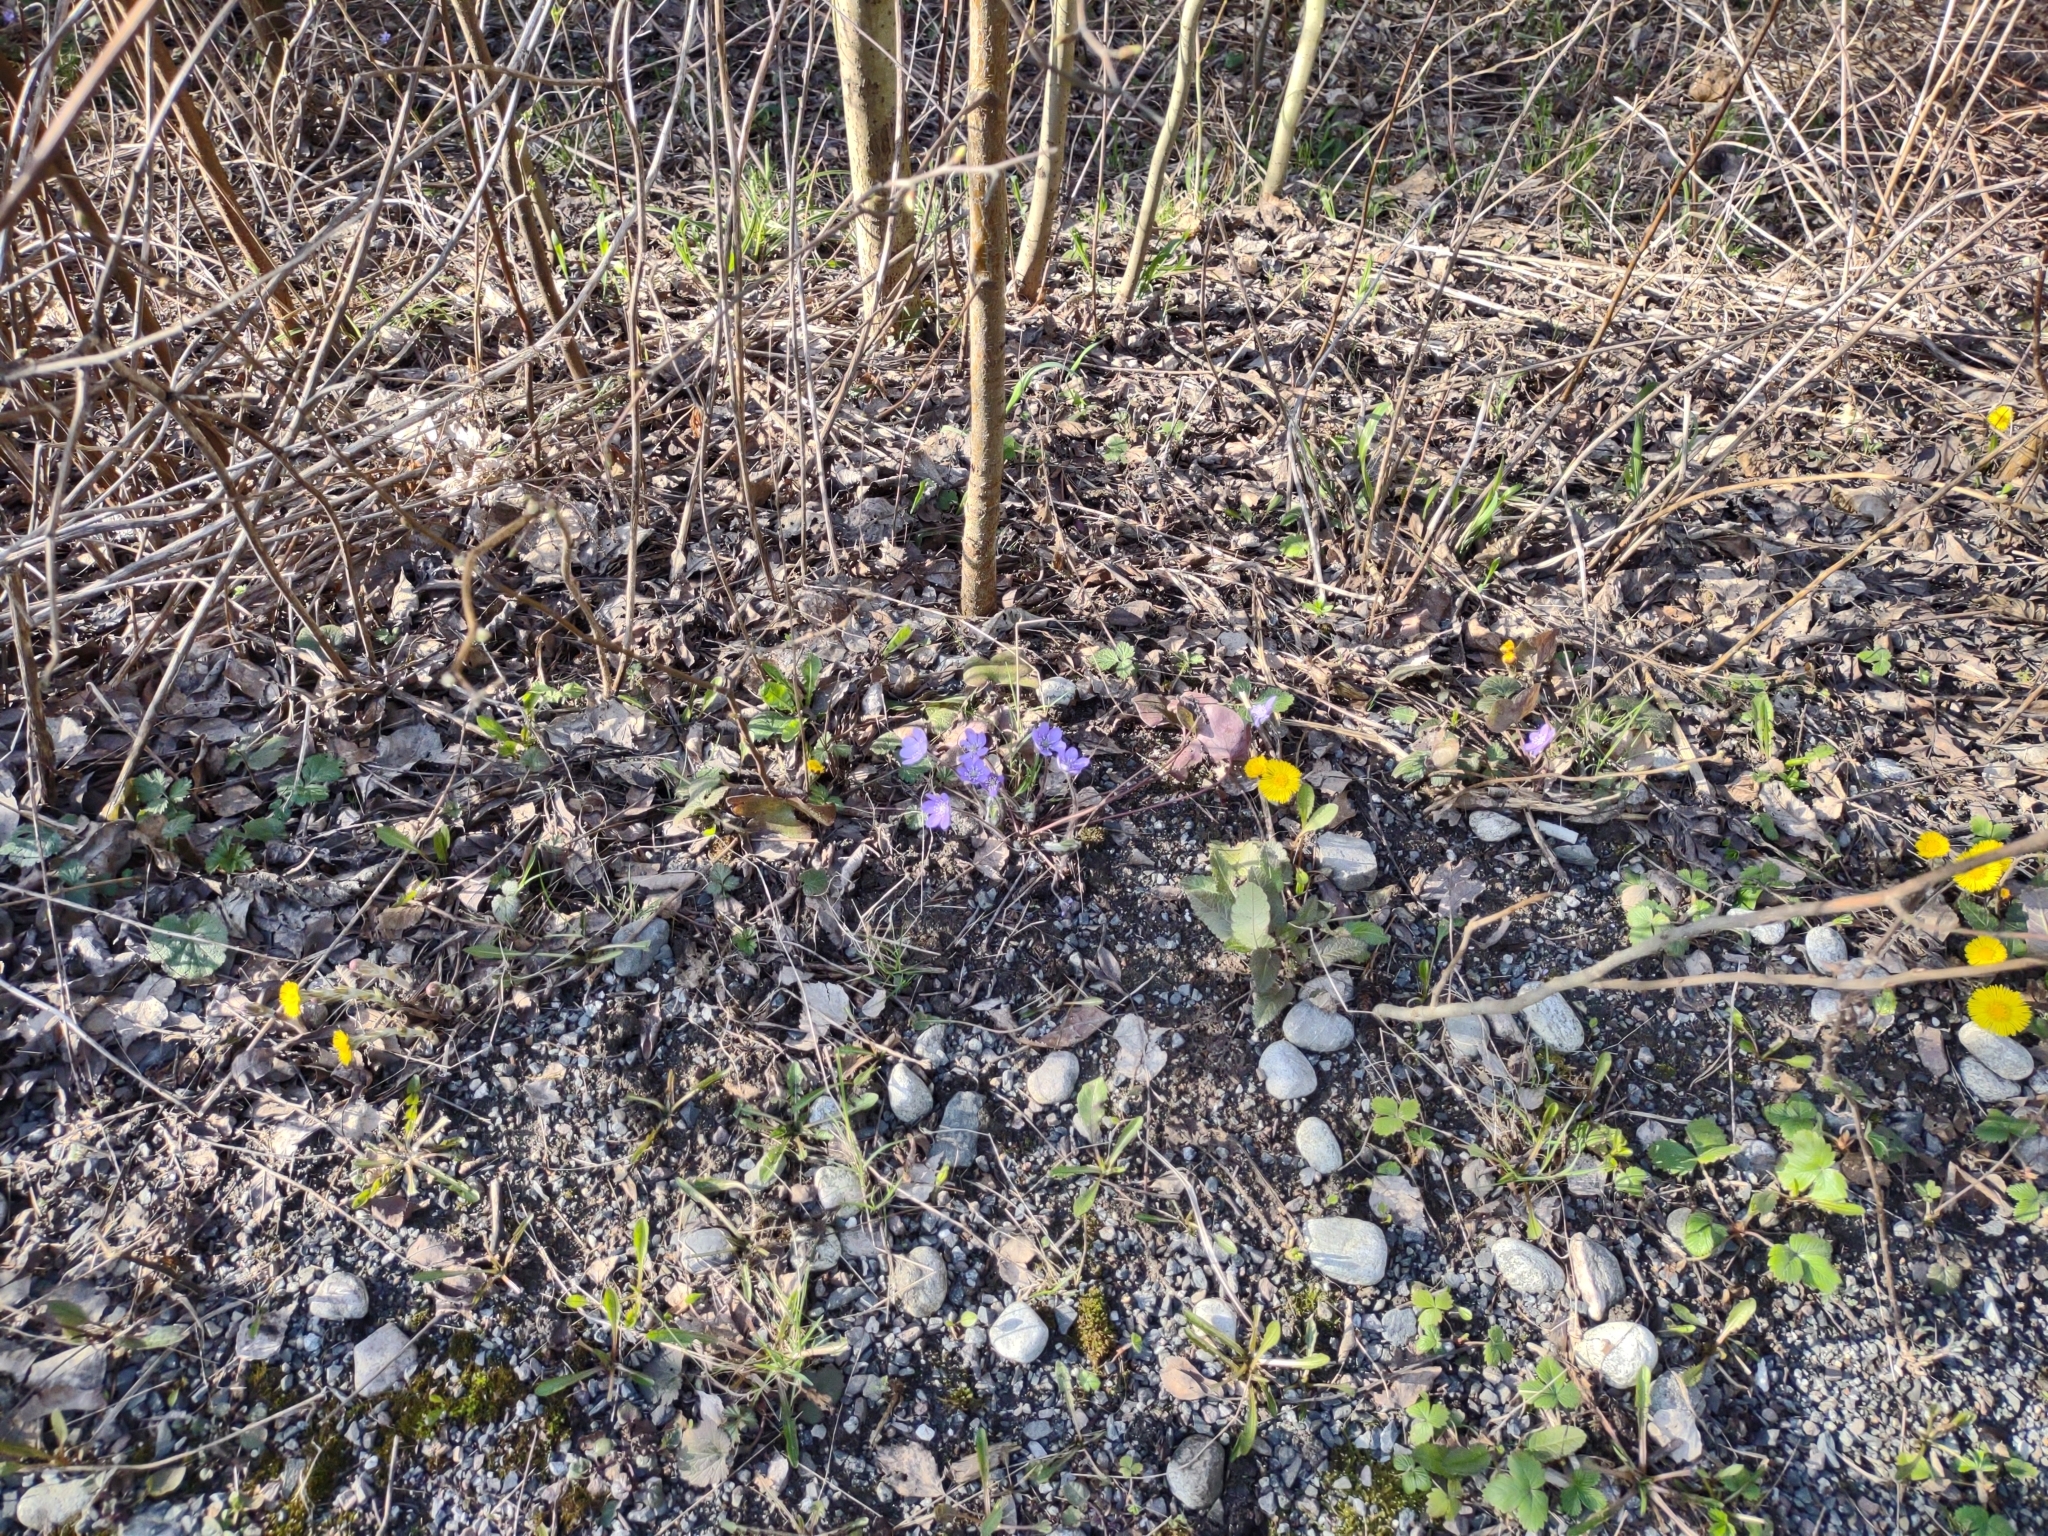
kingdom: Plantae
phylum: Tracheophyta
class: Magnoliopsida
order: Ranunculales
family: Ranunculaceae
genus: Hepatica
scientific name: Hepatica nobilis
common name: Liverleaf
